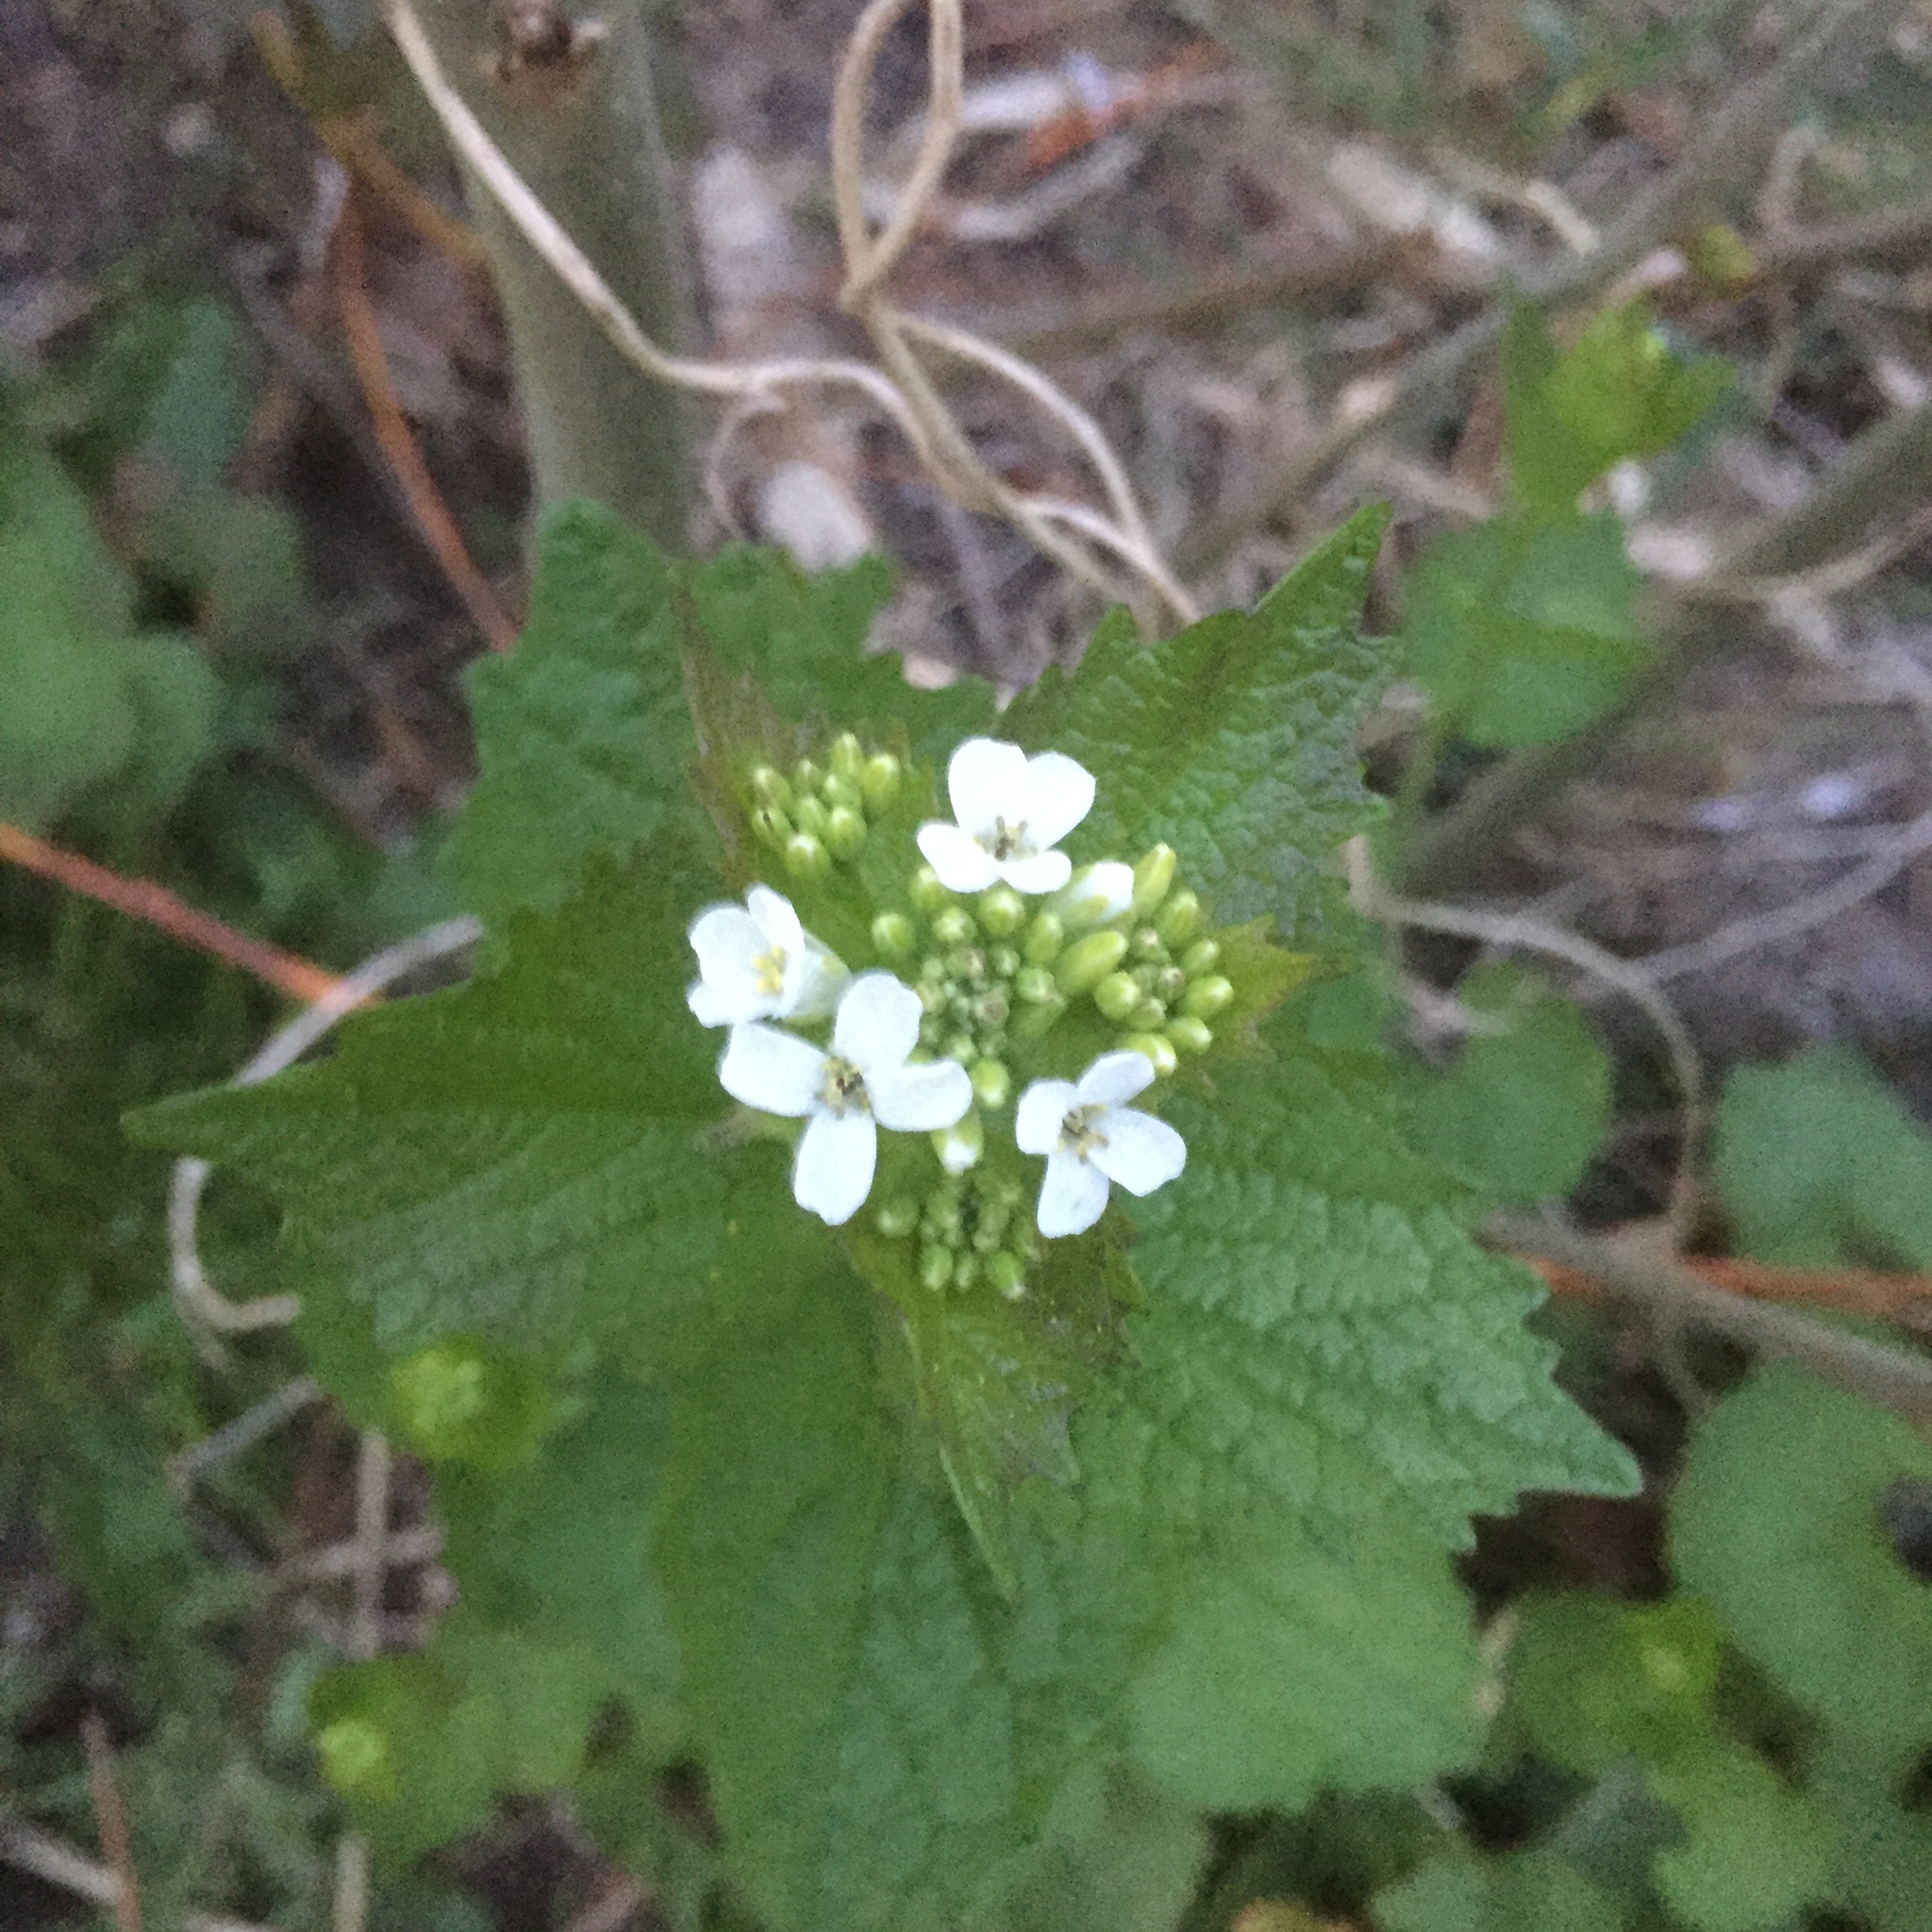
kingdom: Plantae
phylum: Tracheophyta
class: Magnoliopsida
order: Brassicales
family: Brassicaceae
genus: Alliaria
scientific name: Alliaria petiolata
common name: Garlic mustard
